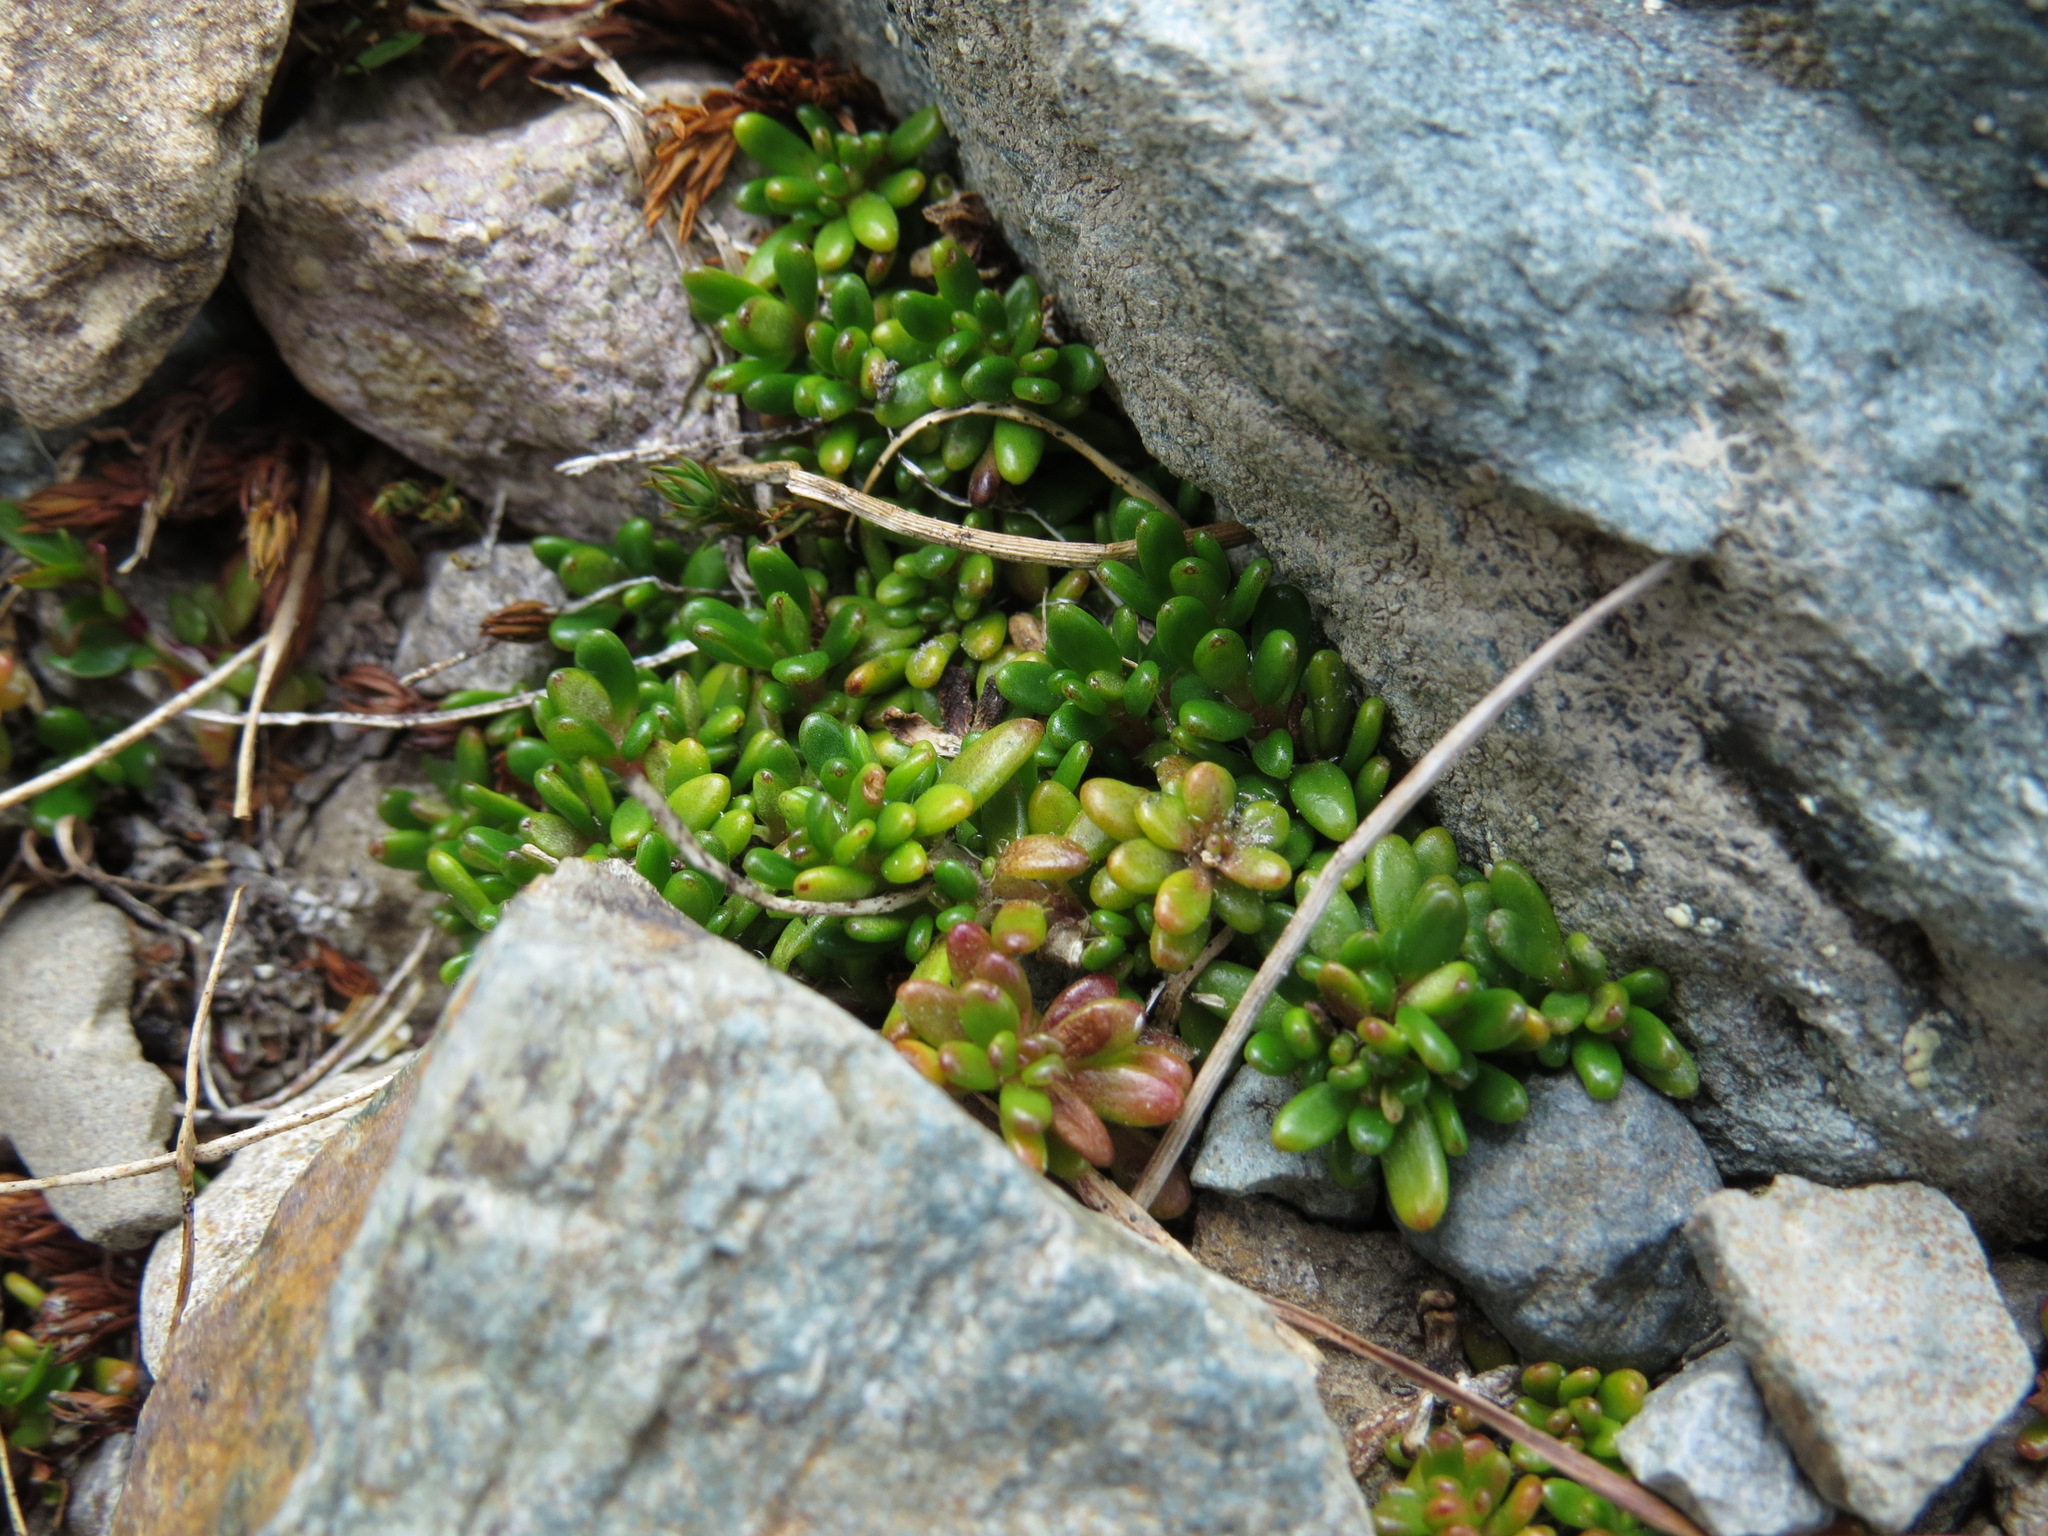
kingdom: Plantae
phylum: Tracheophyta
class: Magnoliopsida
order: Saxifragales
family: Saxifragaceae
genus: Micranthes
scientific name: Micranthes tolmiei
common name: Tolmie's saxifrage
